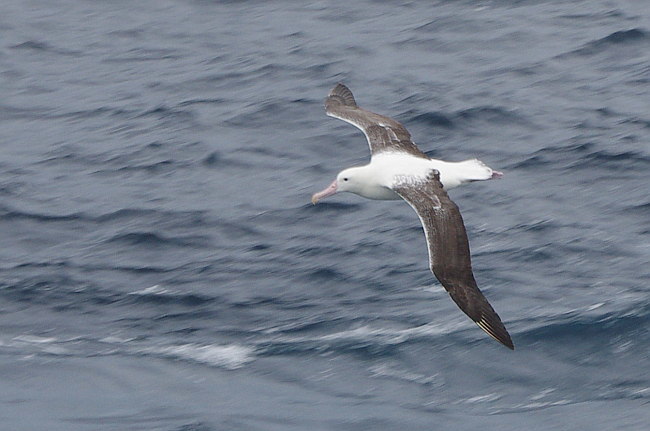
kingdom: Animalia
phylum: Chordata
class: Aves
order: Procellariiformes
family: Diomedeidae
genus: Diomedea
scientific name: Diomedea epomophora
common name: Southern royal albatross
